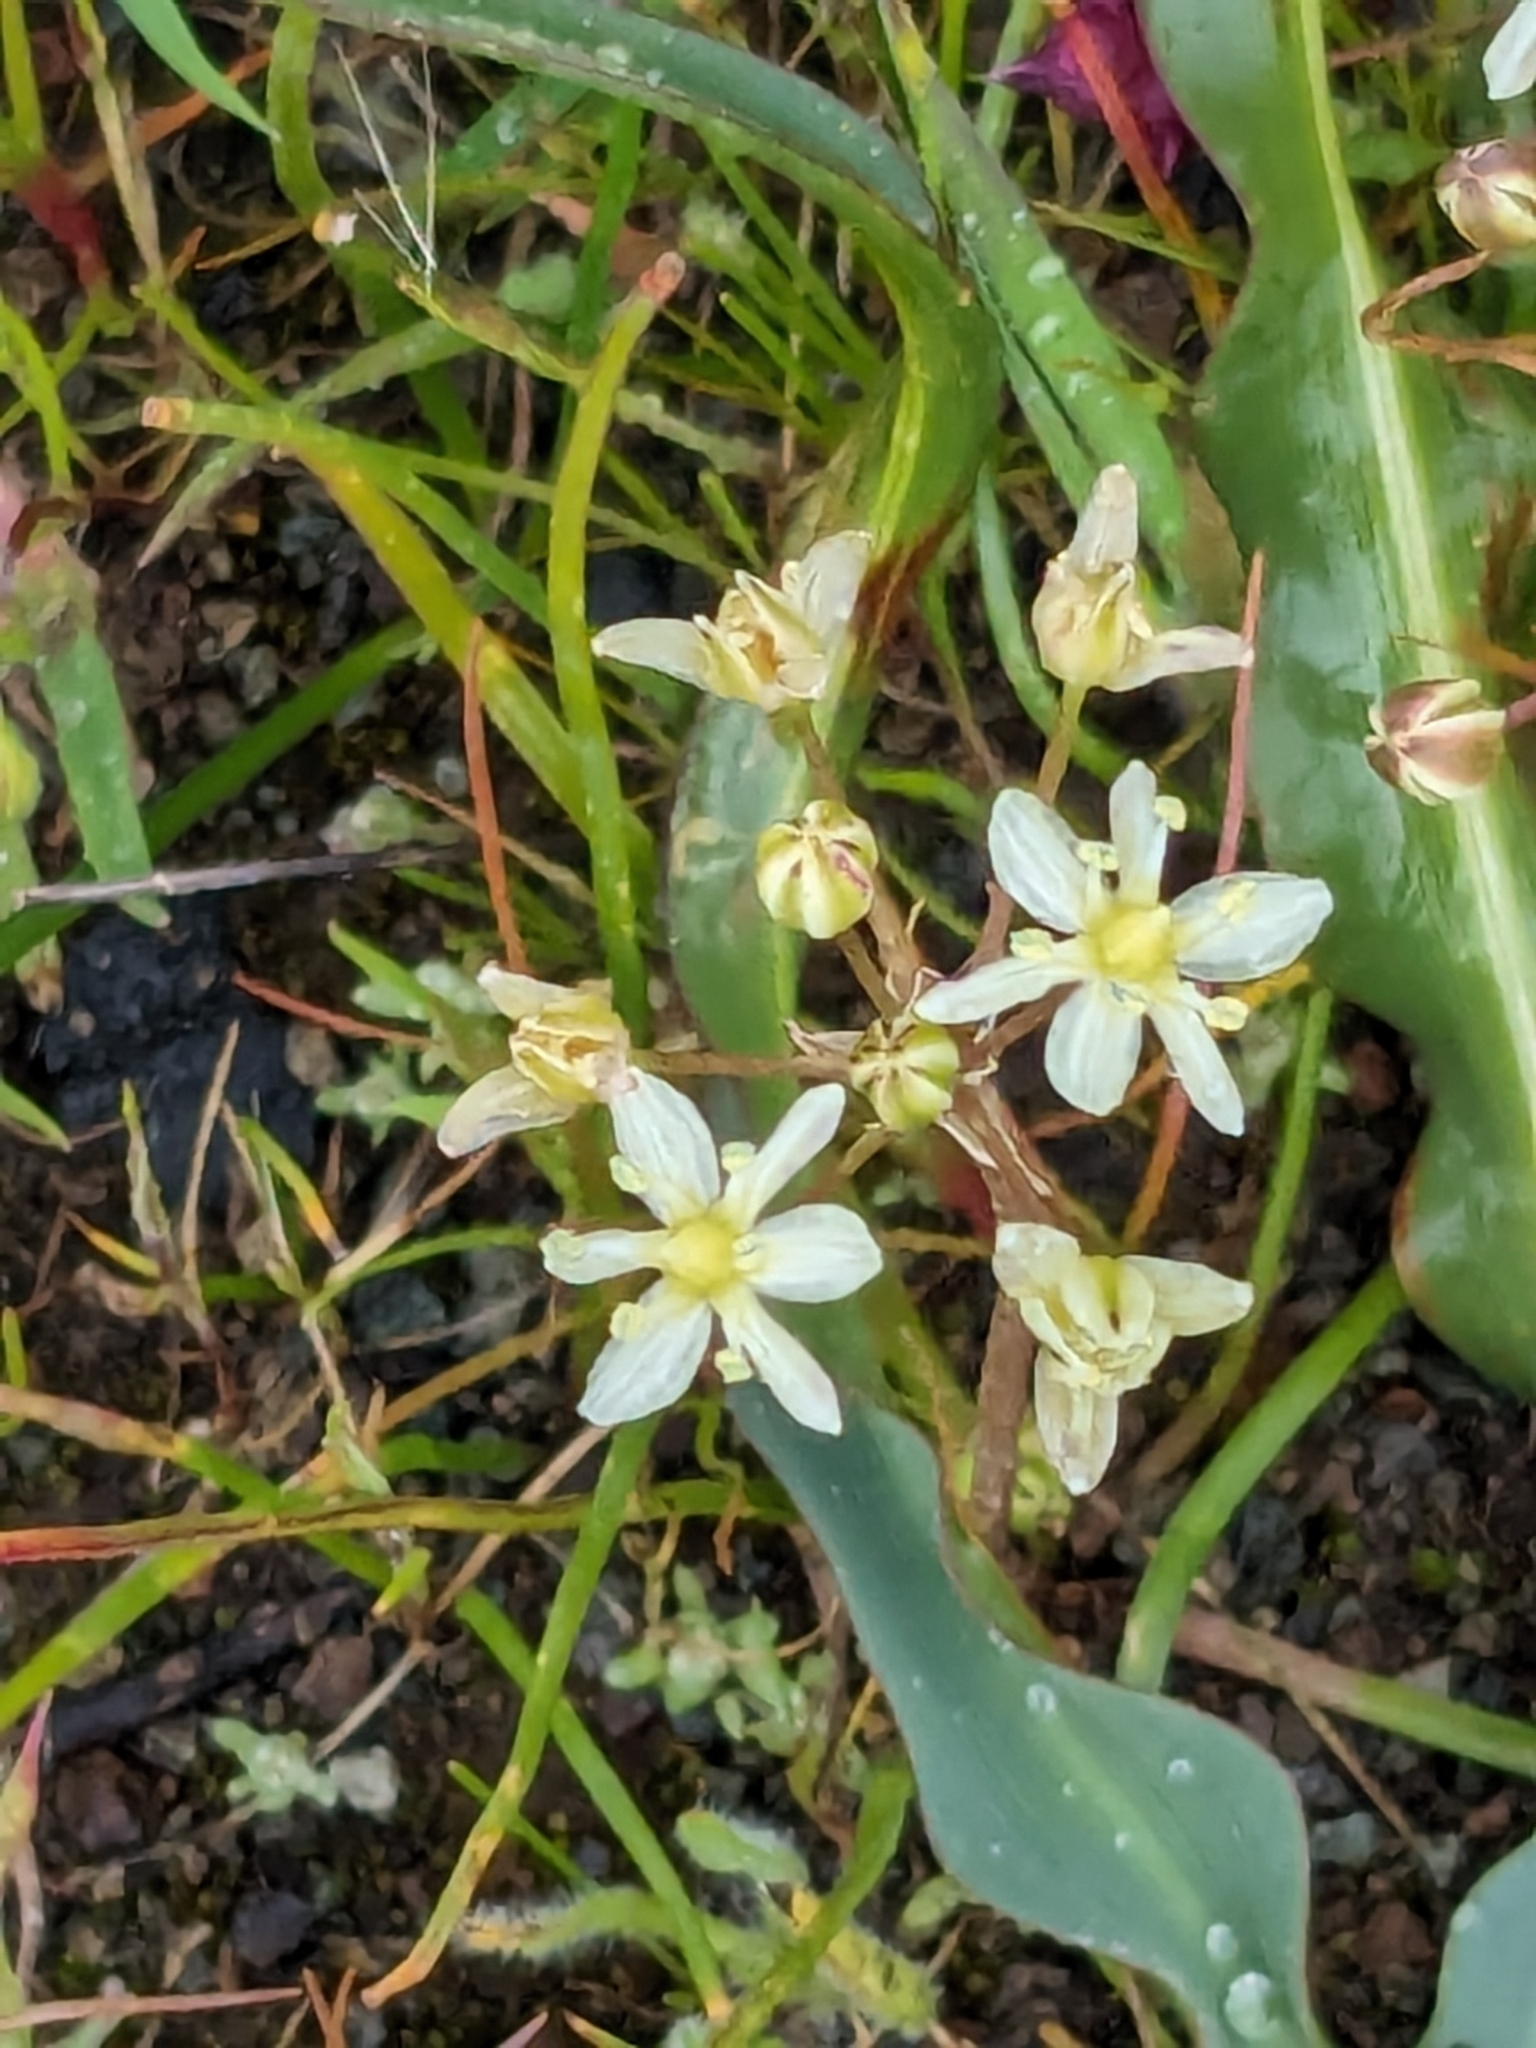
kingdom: Plantae
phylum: Tracheophyta
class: Liliopsida
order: Asparagales
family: Asparagaceae
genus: Muilla
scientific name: Muilla maritima
